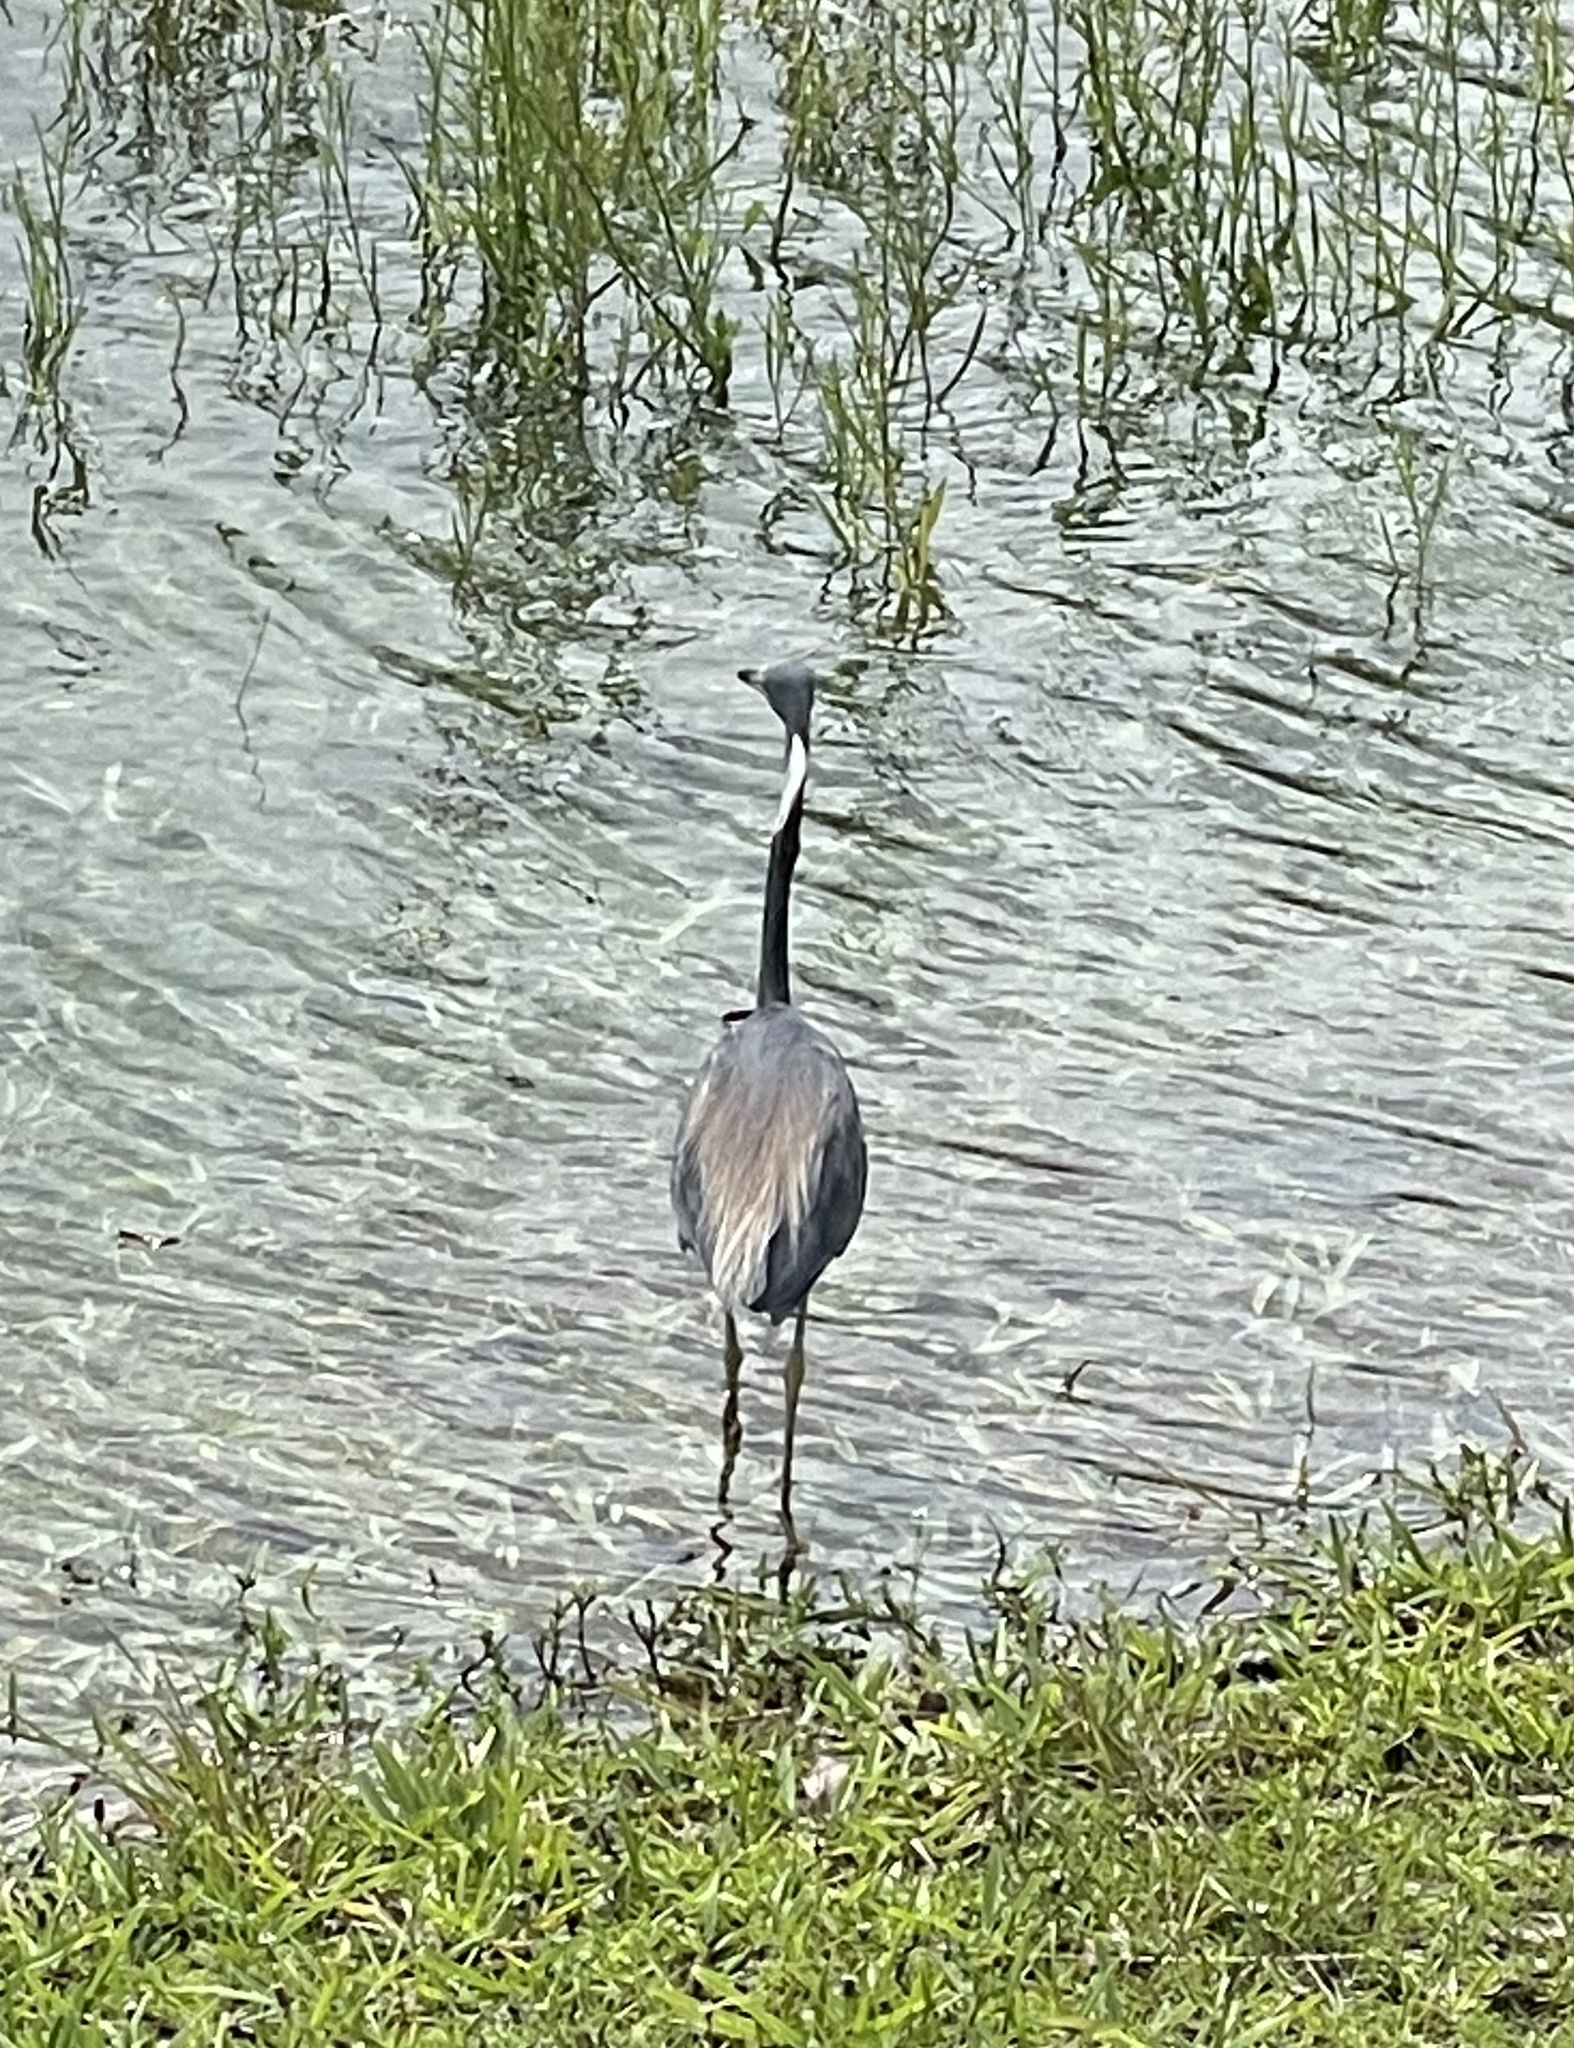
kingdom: Animalia
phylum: Chordata
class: Aves
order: Pelecaniformes
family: Ardeidae
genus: Egretta
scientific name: Egretta tricolor
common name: Tricolored heron
